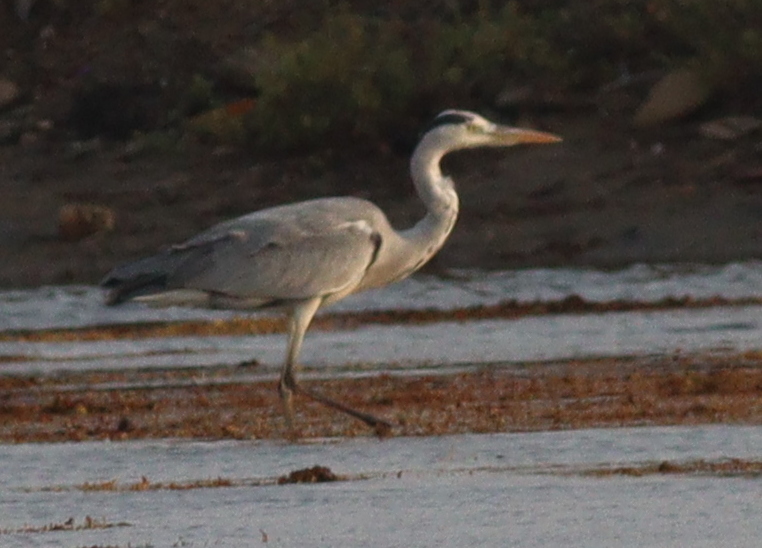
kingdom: Animalia
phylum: Chordata
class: Aves
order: Pelecaniformes
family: Ardeidae
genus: Ardea
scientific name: Ardea cinerea
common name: Grey heron
